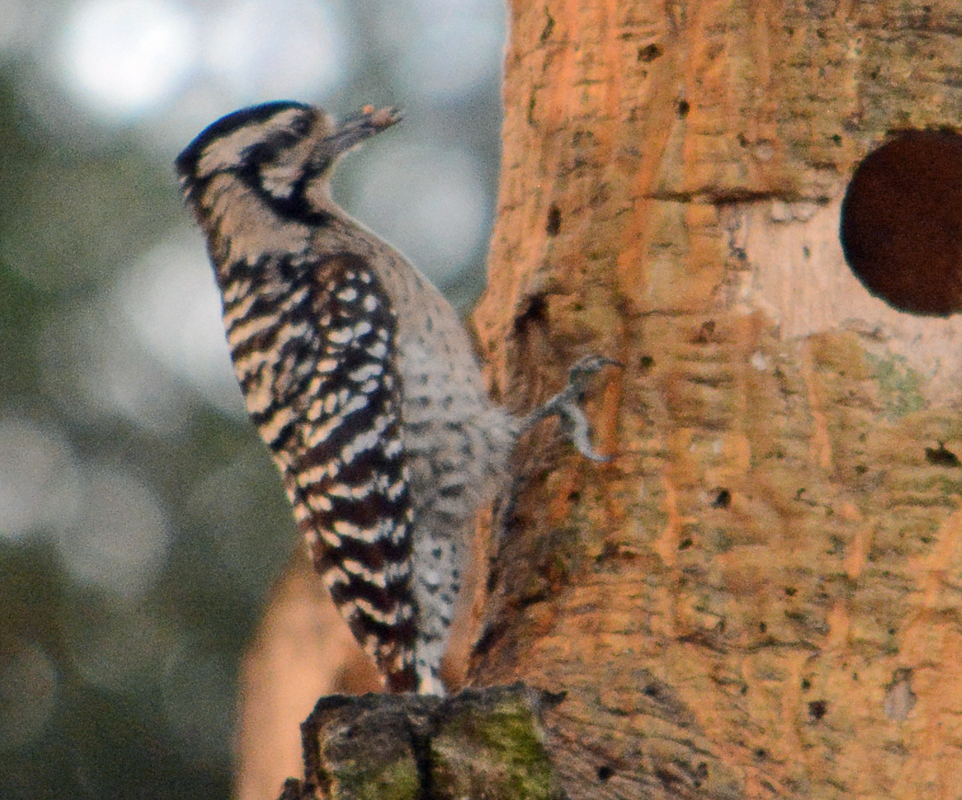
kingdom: Animalia
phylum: Chordata
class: Aves
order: Piciformes
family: Picidae
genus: Dryobates
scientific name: Dryobates scalaris
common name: Ladder-backed woodpecker
